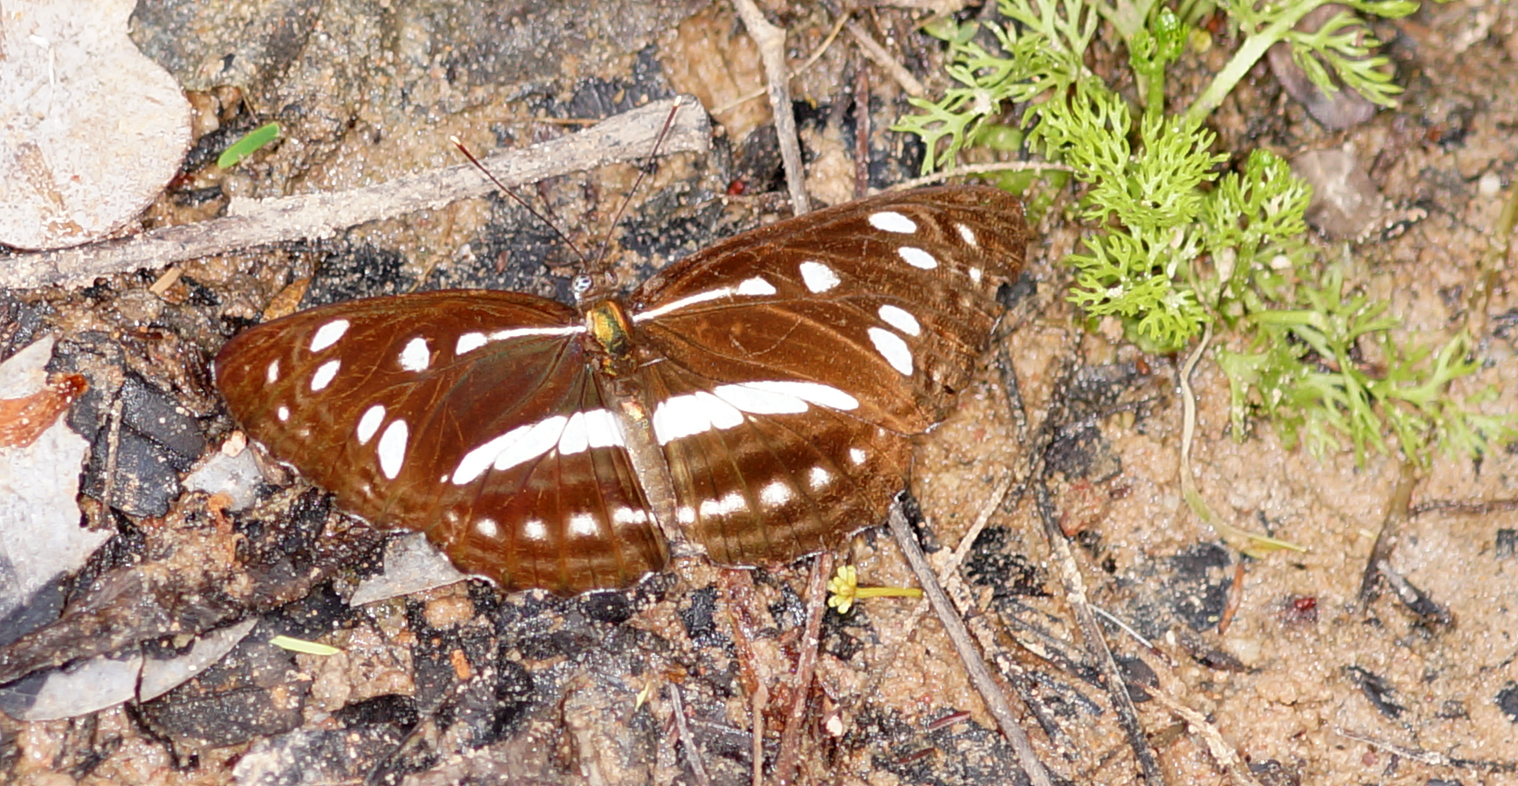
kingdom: Animalia
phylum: Arthropoda
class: Insecta
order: Lepidoptera
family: Nymphalidae
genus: Phaedyma
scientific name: Phaedyma columella
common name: Short banded sailer
